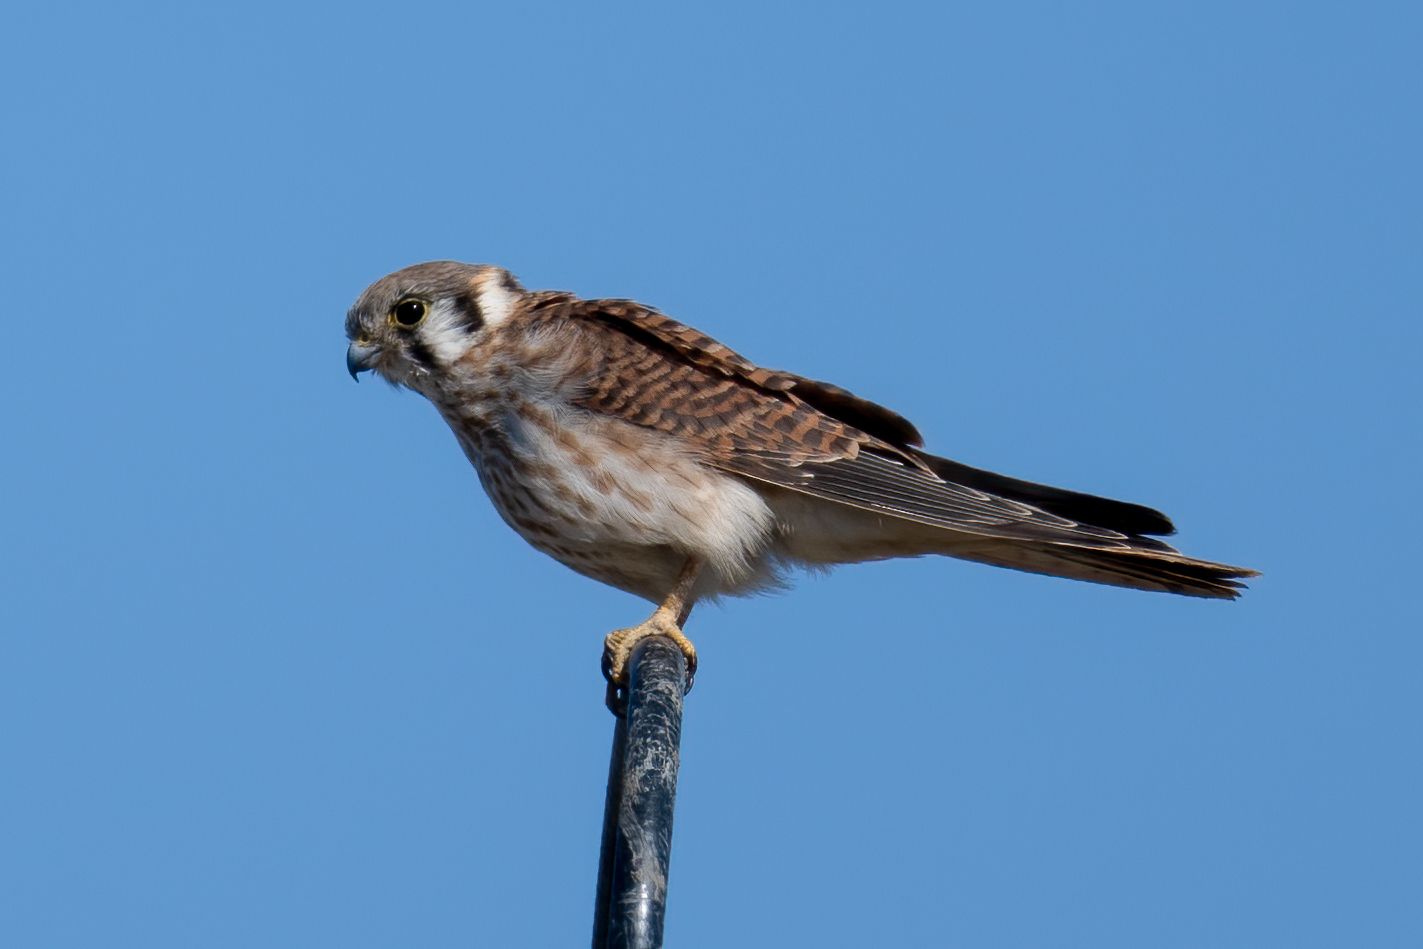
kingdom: Animalia
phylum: Chordata
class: Aves
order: Falconiformes
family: Falconidae
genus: Falco
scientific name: Falco sparverius
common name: American kestrel
